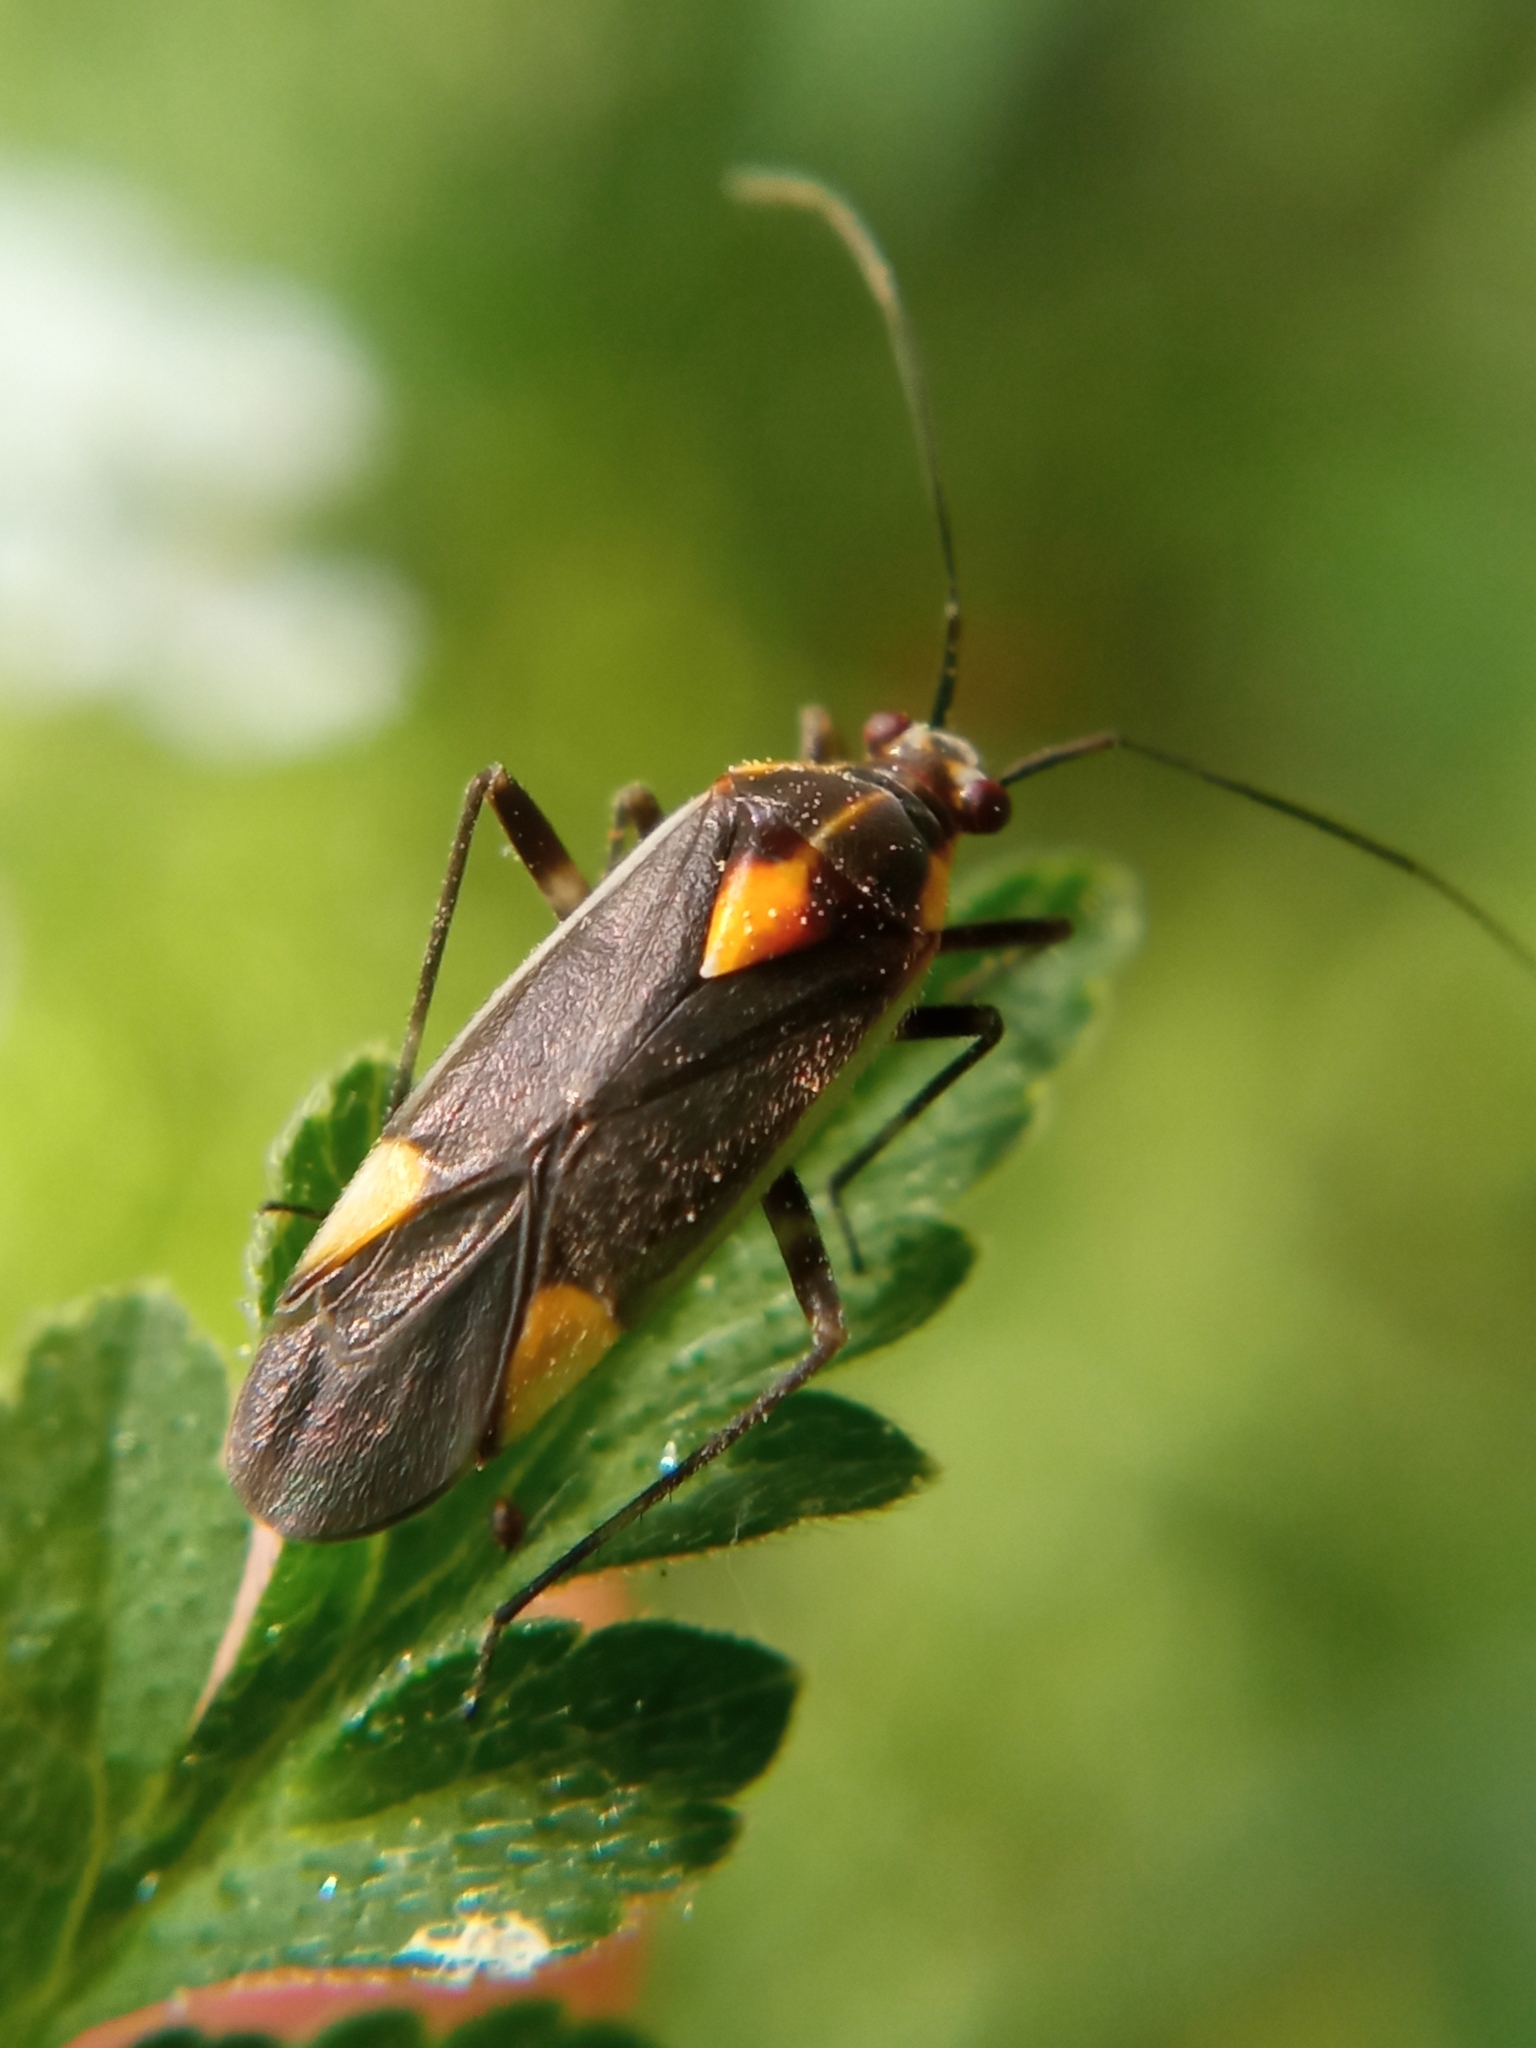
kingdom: Animalia
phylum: Arthropoda
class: Insecta
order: Hemiptera
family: Miridae
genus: Capsodes
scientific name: Capsodes flavomarginatus
